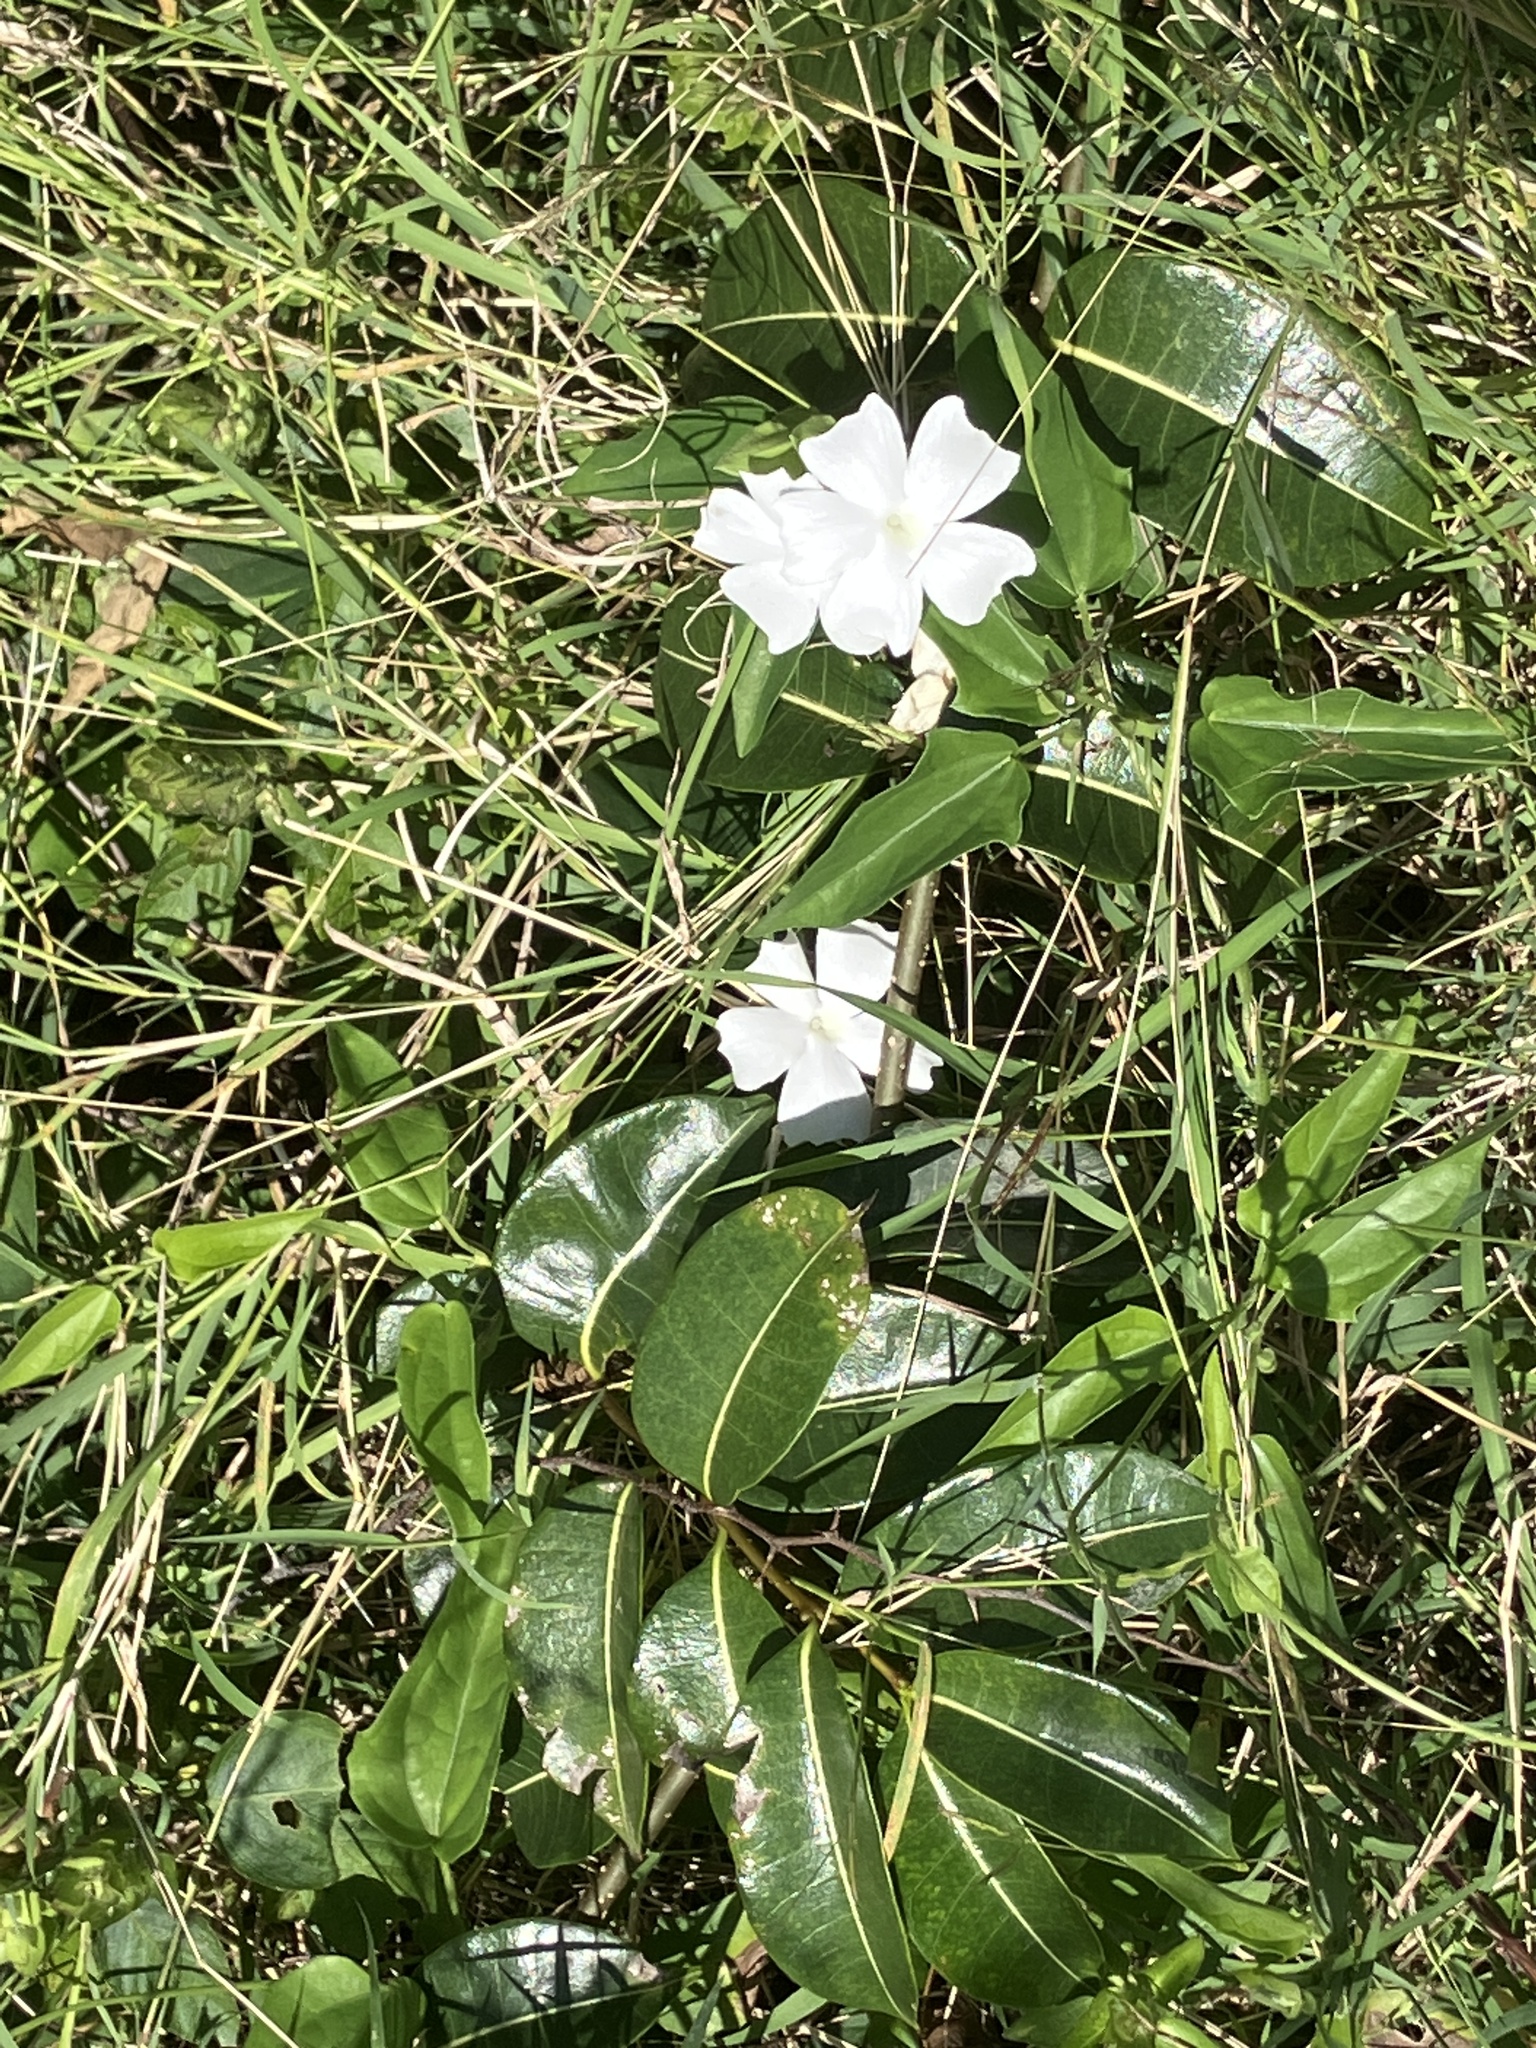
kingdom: Plantae
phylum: Tracheophyta
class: Magnoliopsida
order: Lamiales
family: Acanthaceae
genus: Thunbergia
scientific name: Thunbergia fragrans
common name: Whitelady
